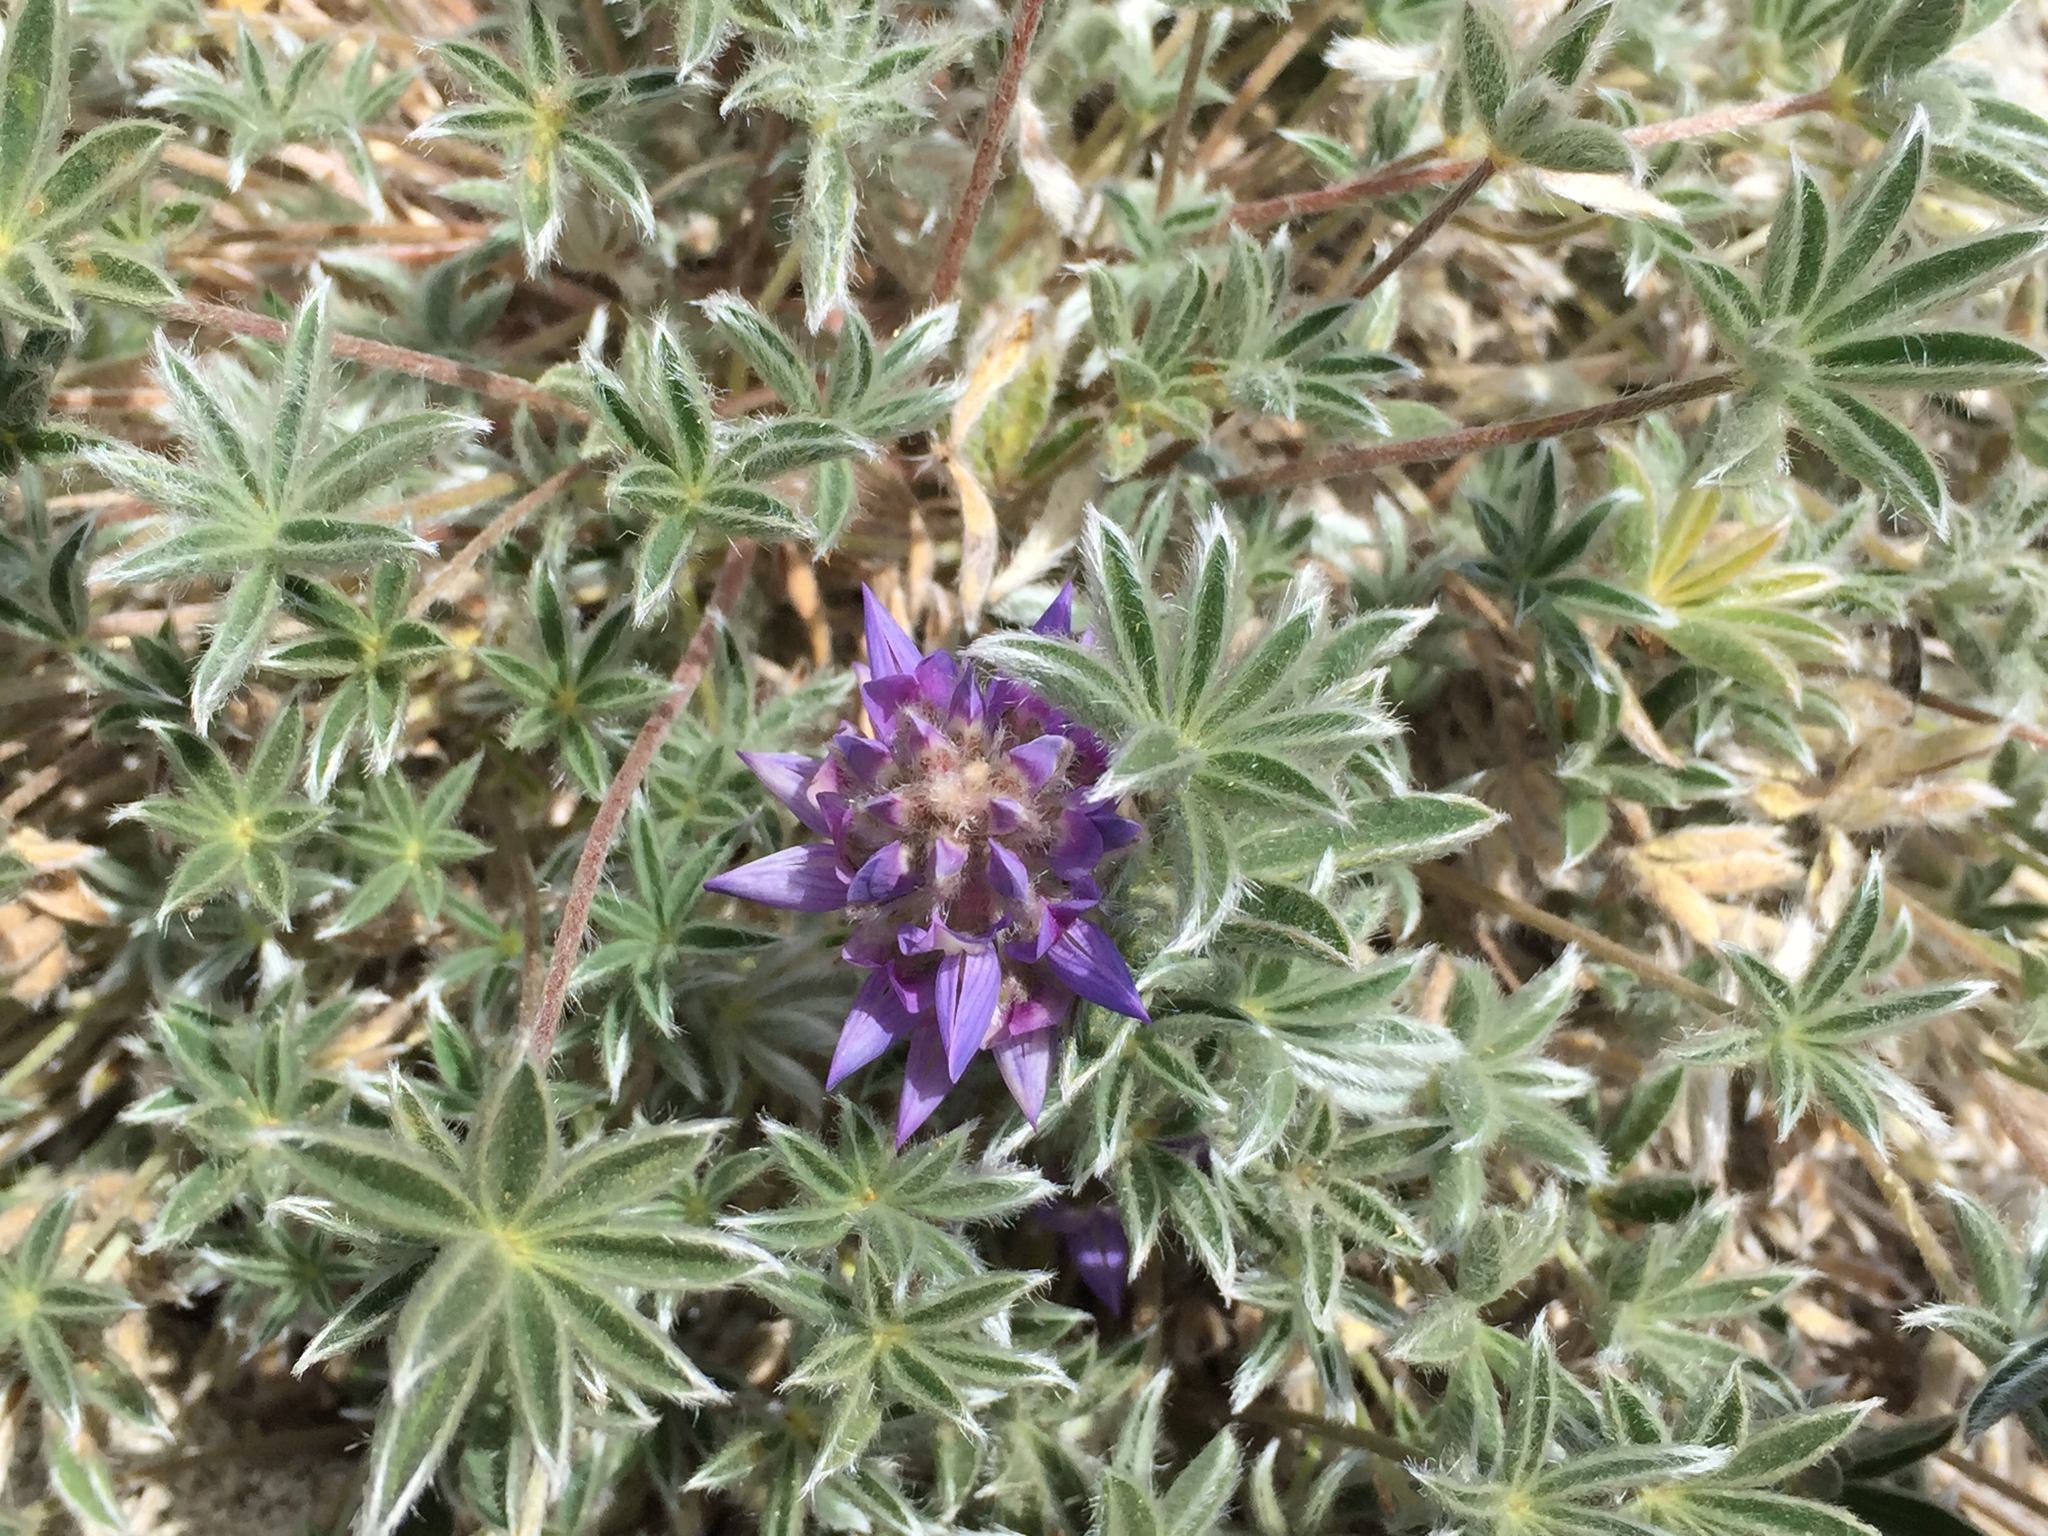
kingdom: Plantae
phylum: Tracheophyta
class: Magnoliopsida
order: Fabales
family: Fabaceae
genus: Lupinus
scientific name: Lupinus lepidus
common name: Prairie lupine
